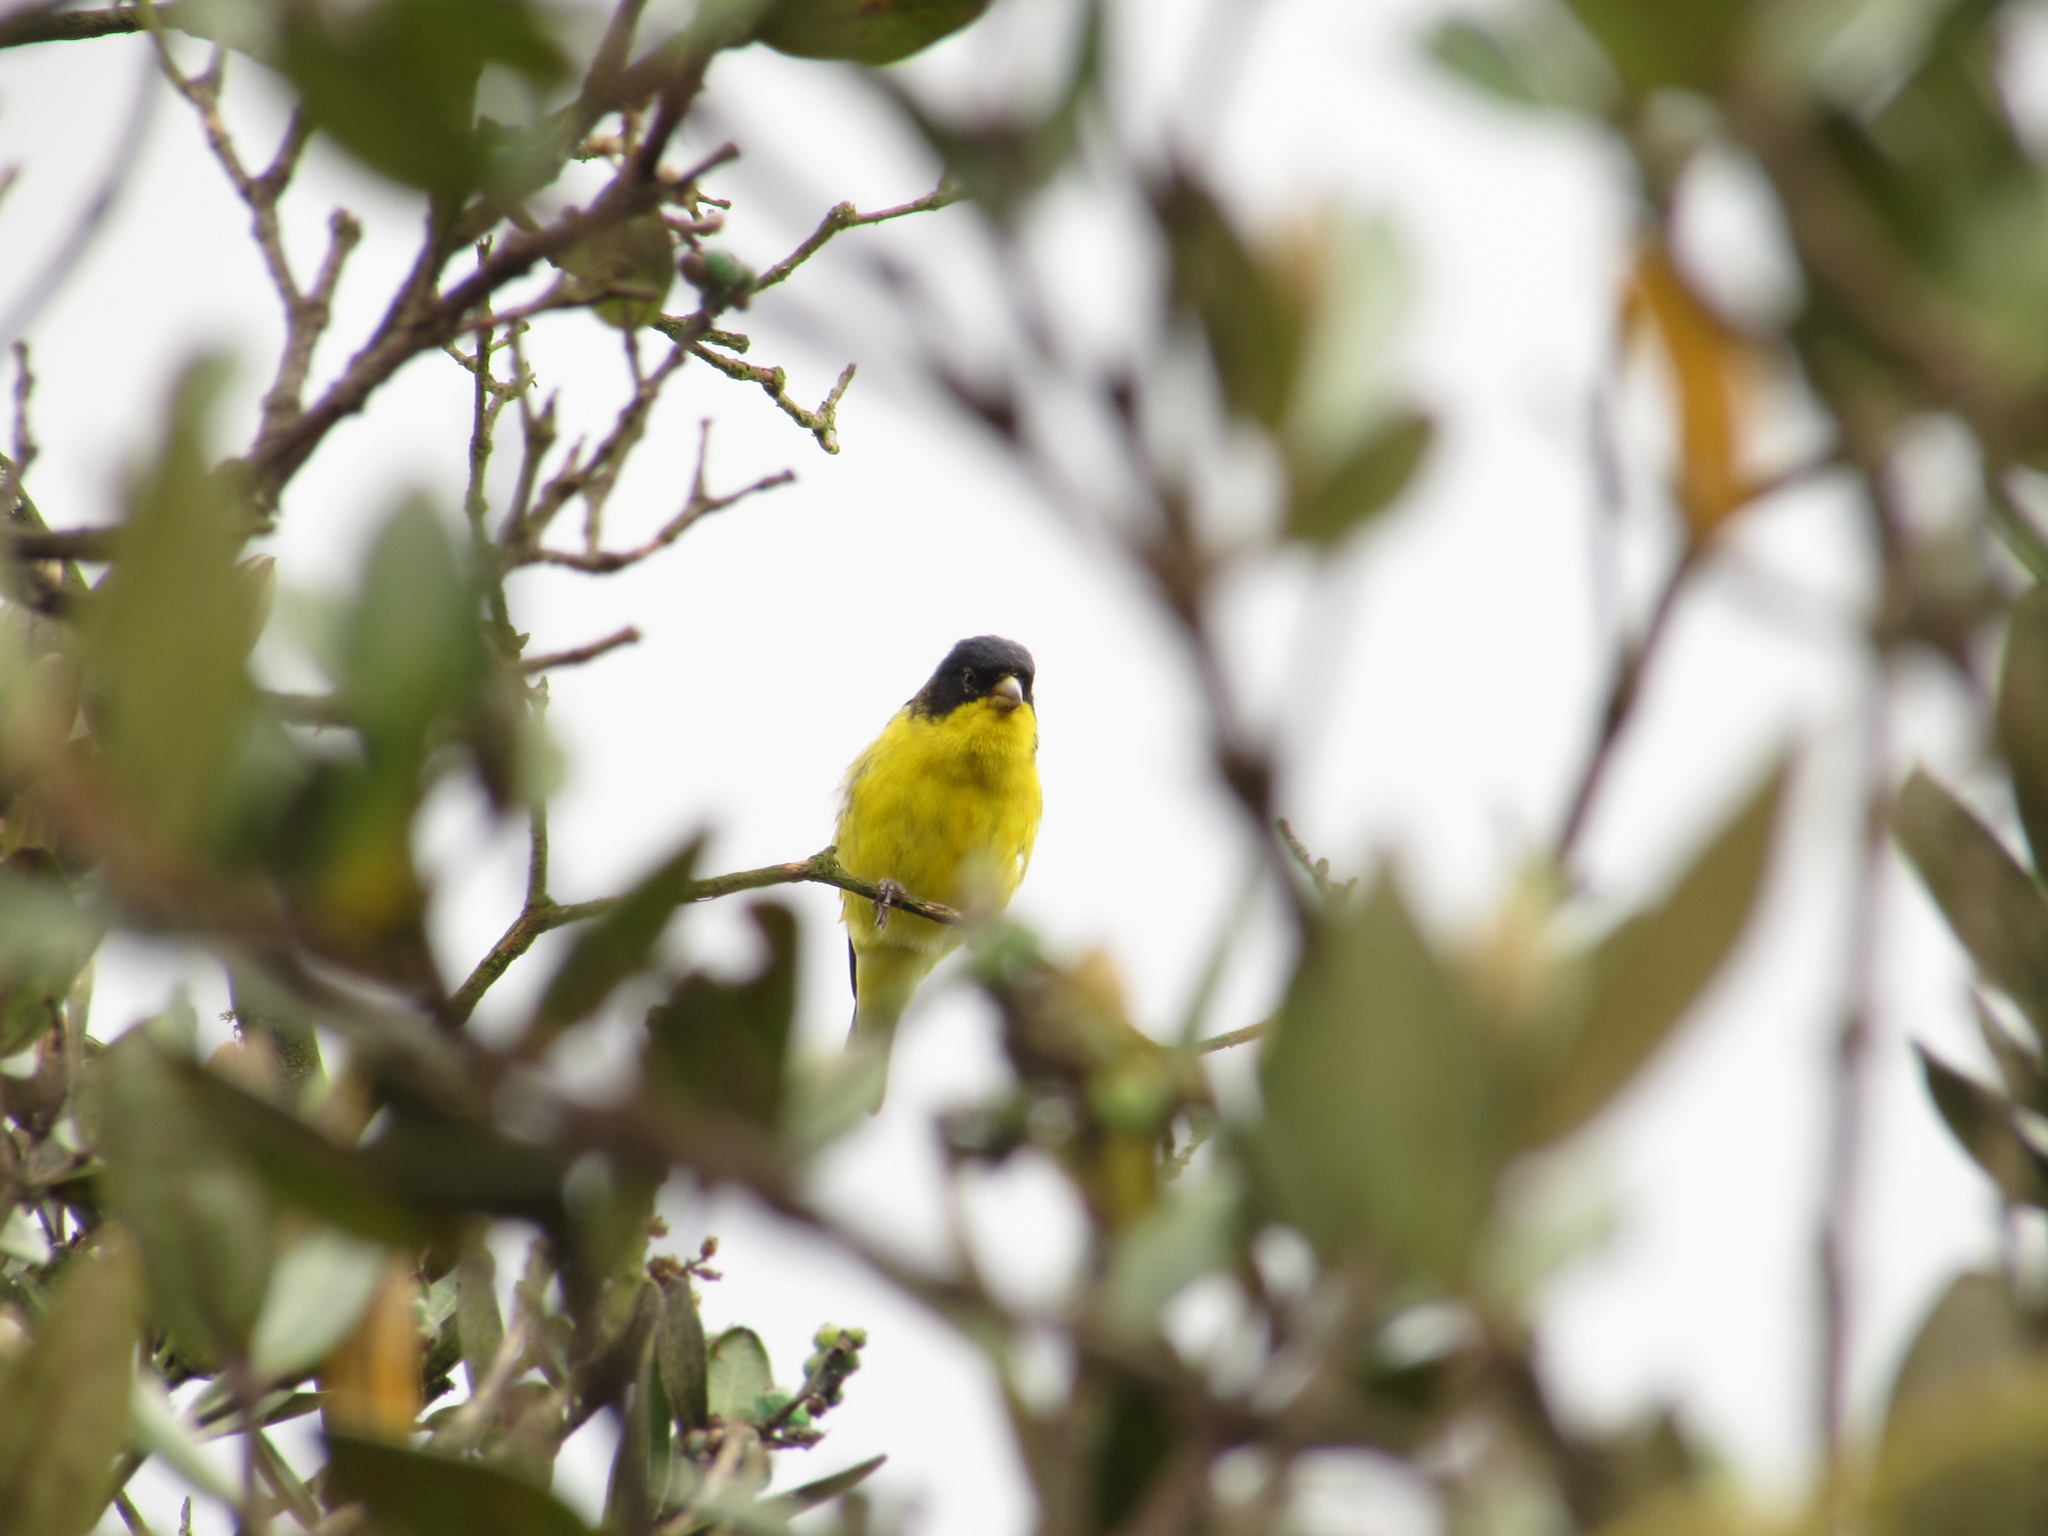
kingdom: Animalia
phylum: Chordata
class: Aves
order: Passeriformes
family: Fringillidae
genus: Spinus
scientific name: Spinus psaltria
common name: Lesser goldfinch
